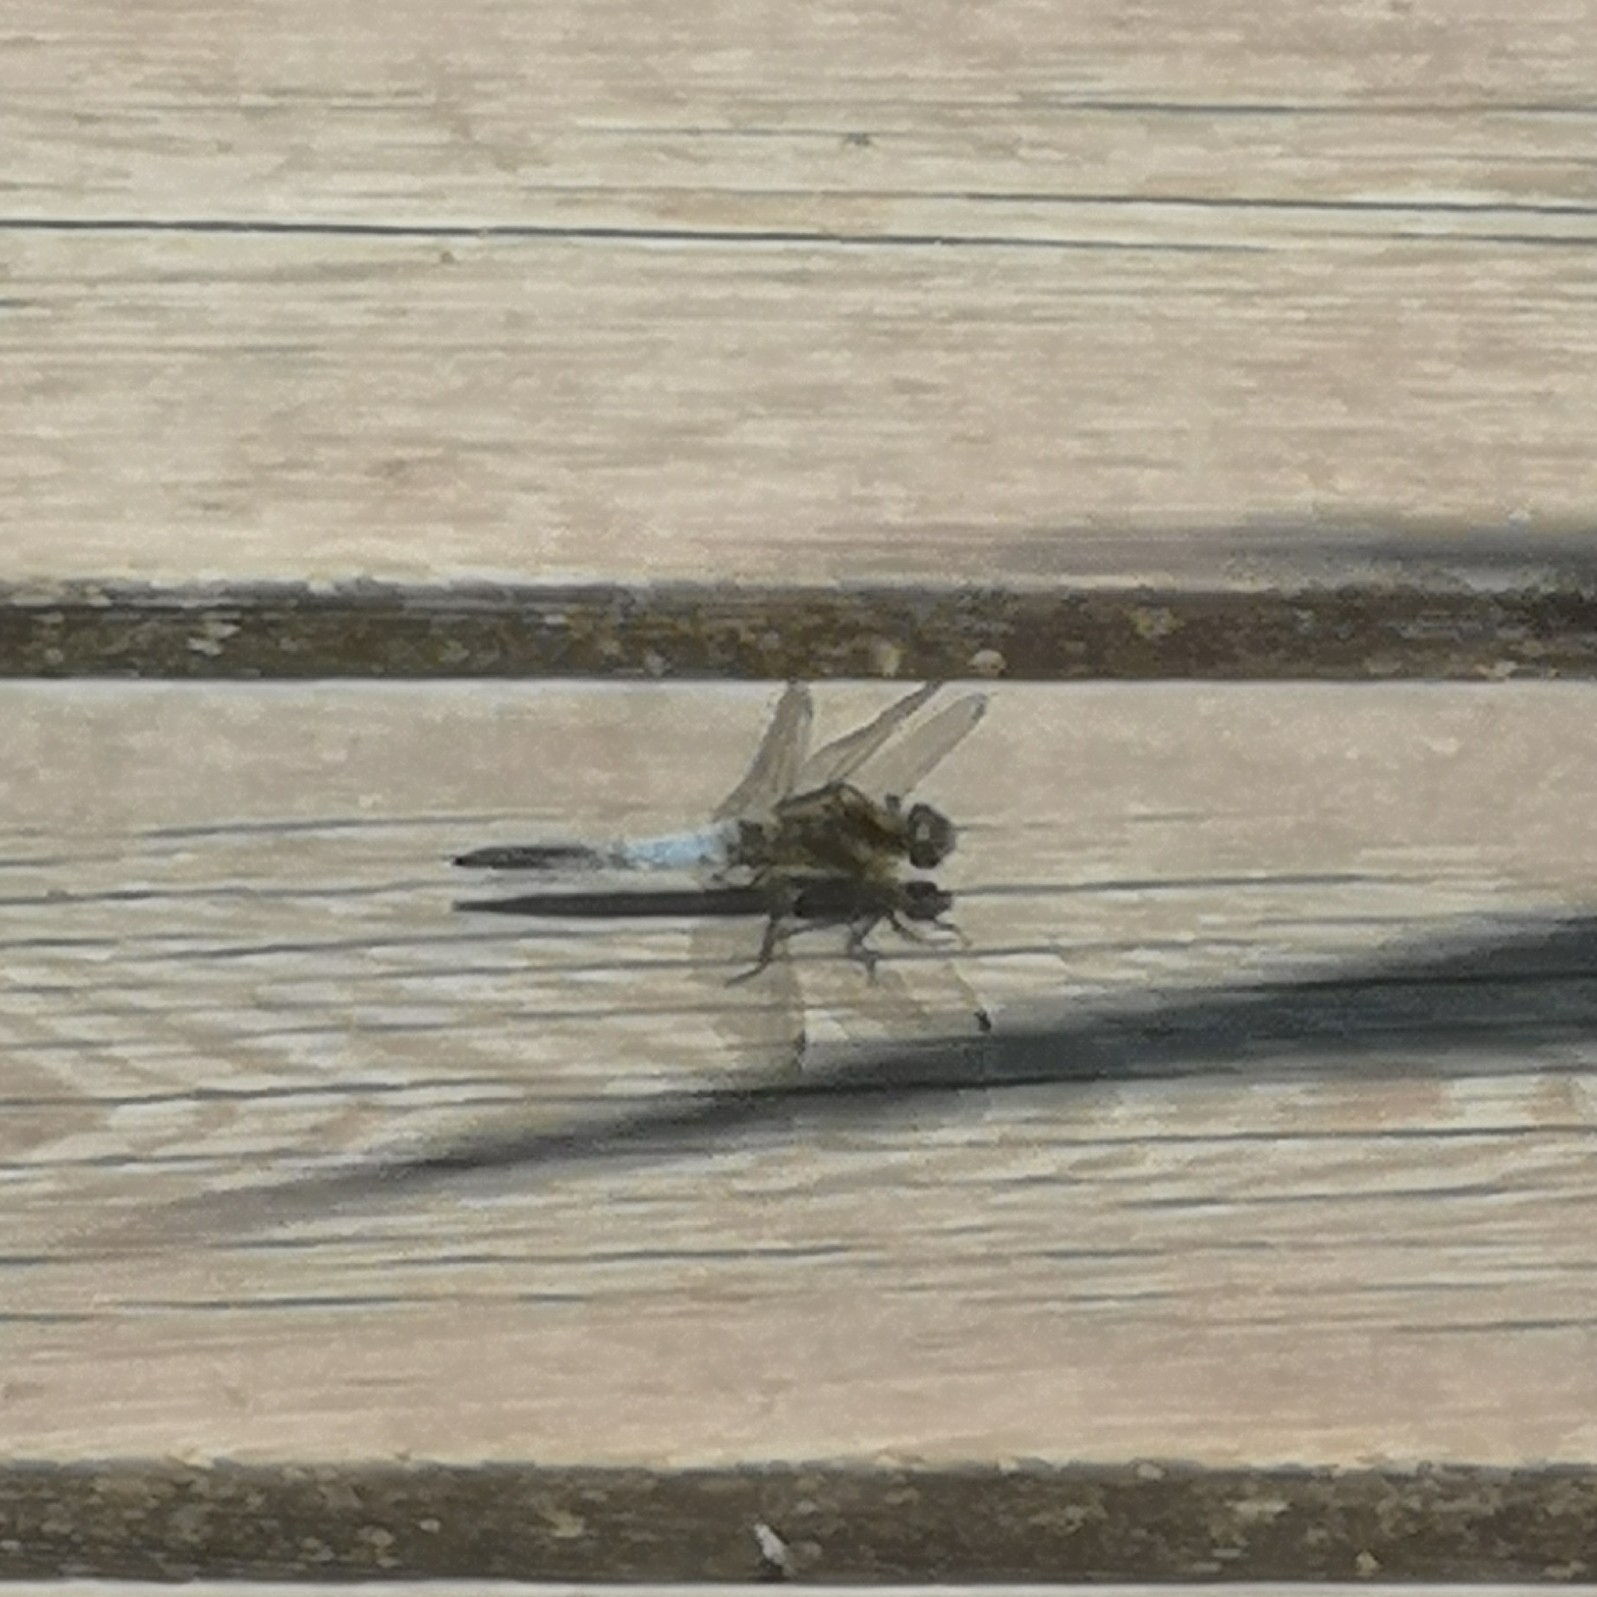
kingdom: Animalia
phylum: Arthropoda
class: Insecta
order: Odonata
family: Libellulidae
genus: Orthetrum
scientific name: Orthetrum cancellatum
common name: Black-tailed skimmer
